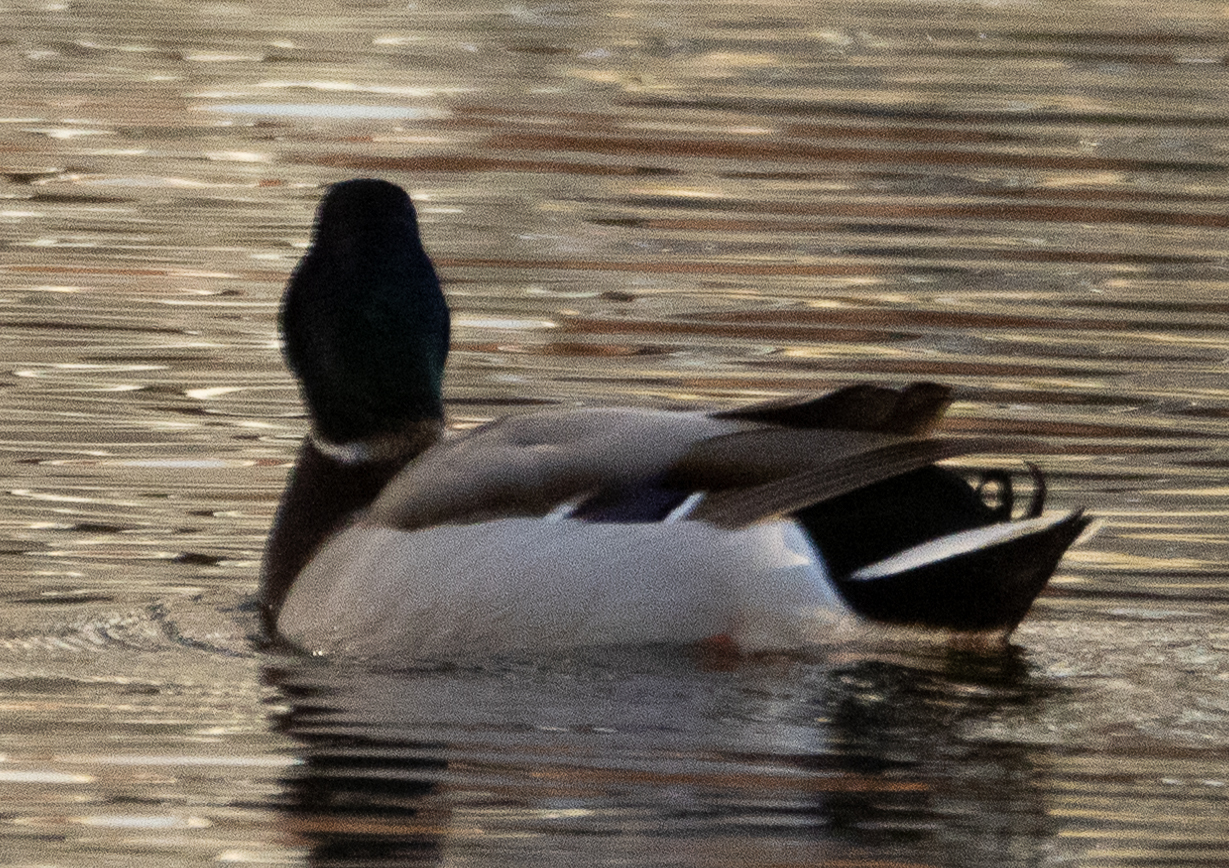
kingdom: Animalia
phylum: Chordata
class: Aves
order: Anseriformes
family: Anatidae
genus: Anas
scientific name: Anas platyrhynchos
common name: Mallard
